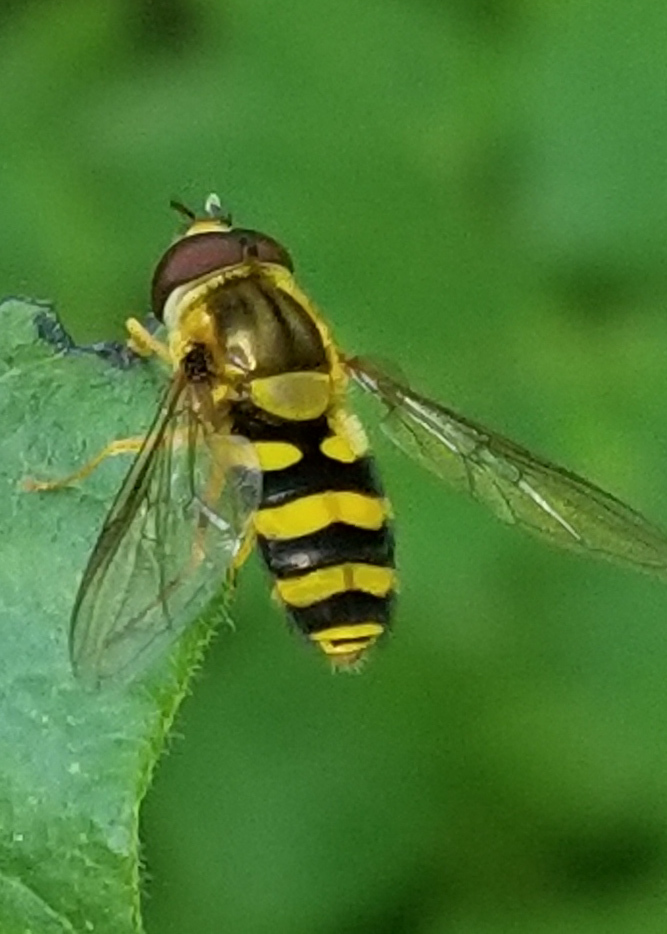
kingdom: Animalia
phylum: Arthropoda
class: Insecta
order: Diptera
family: Syrphidae
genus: Syrphus
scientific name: Syrphus knabi
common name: Eastern flower fly
